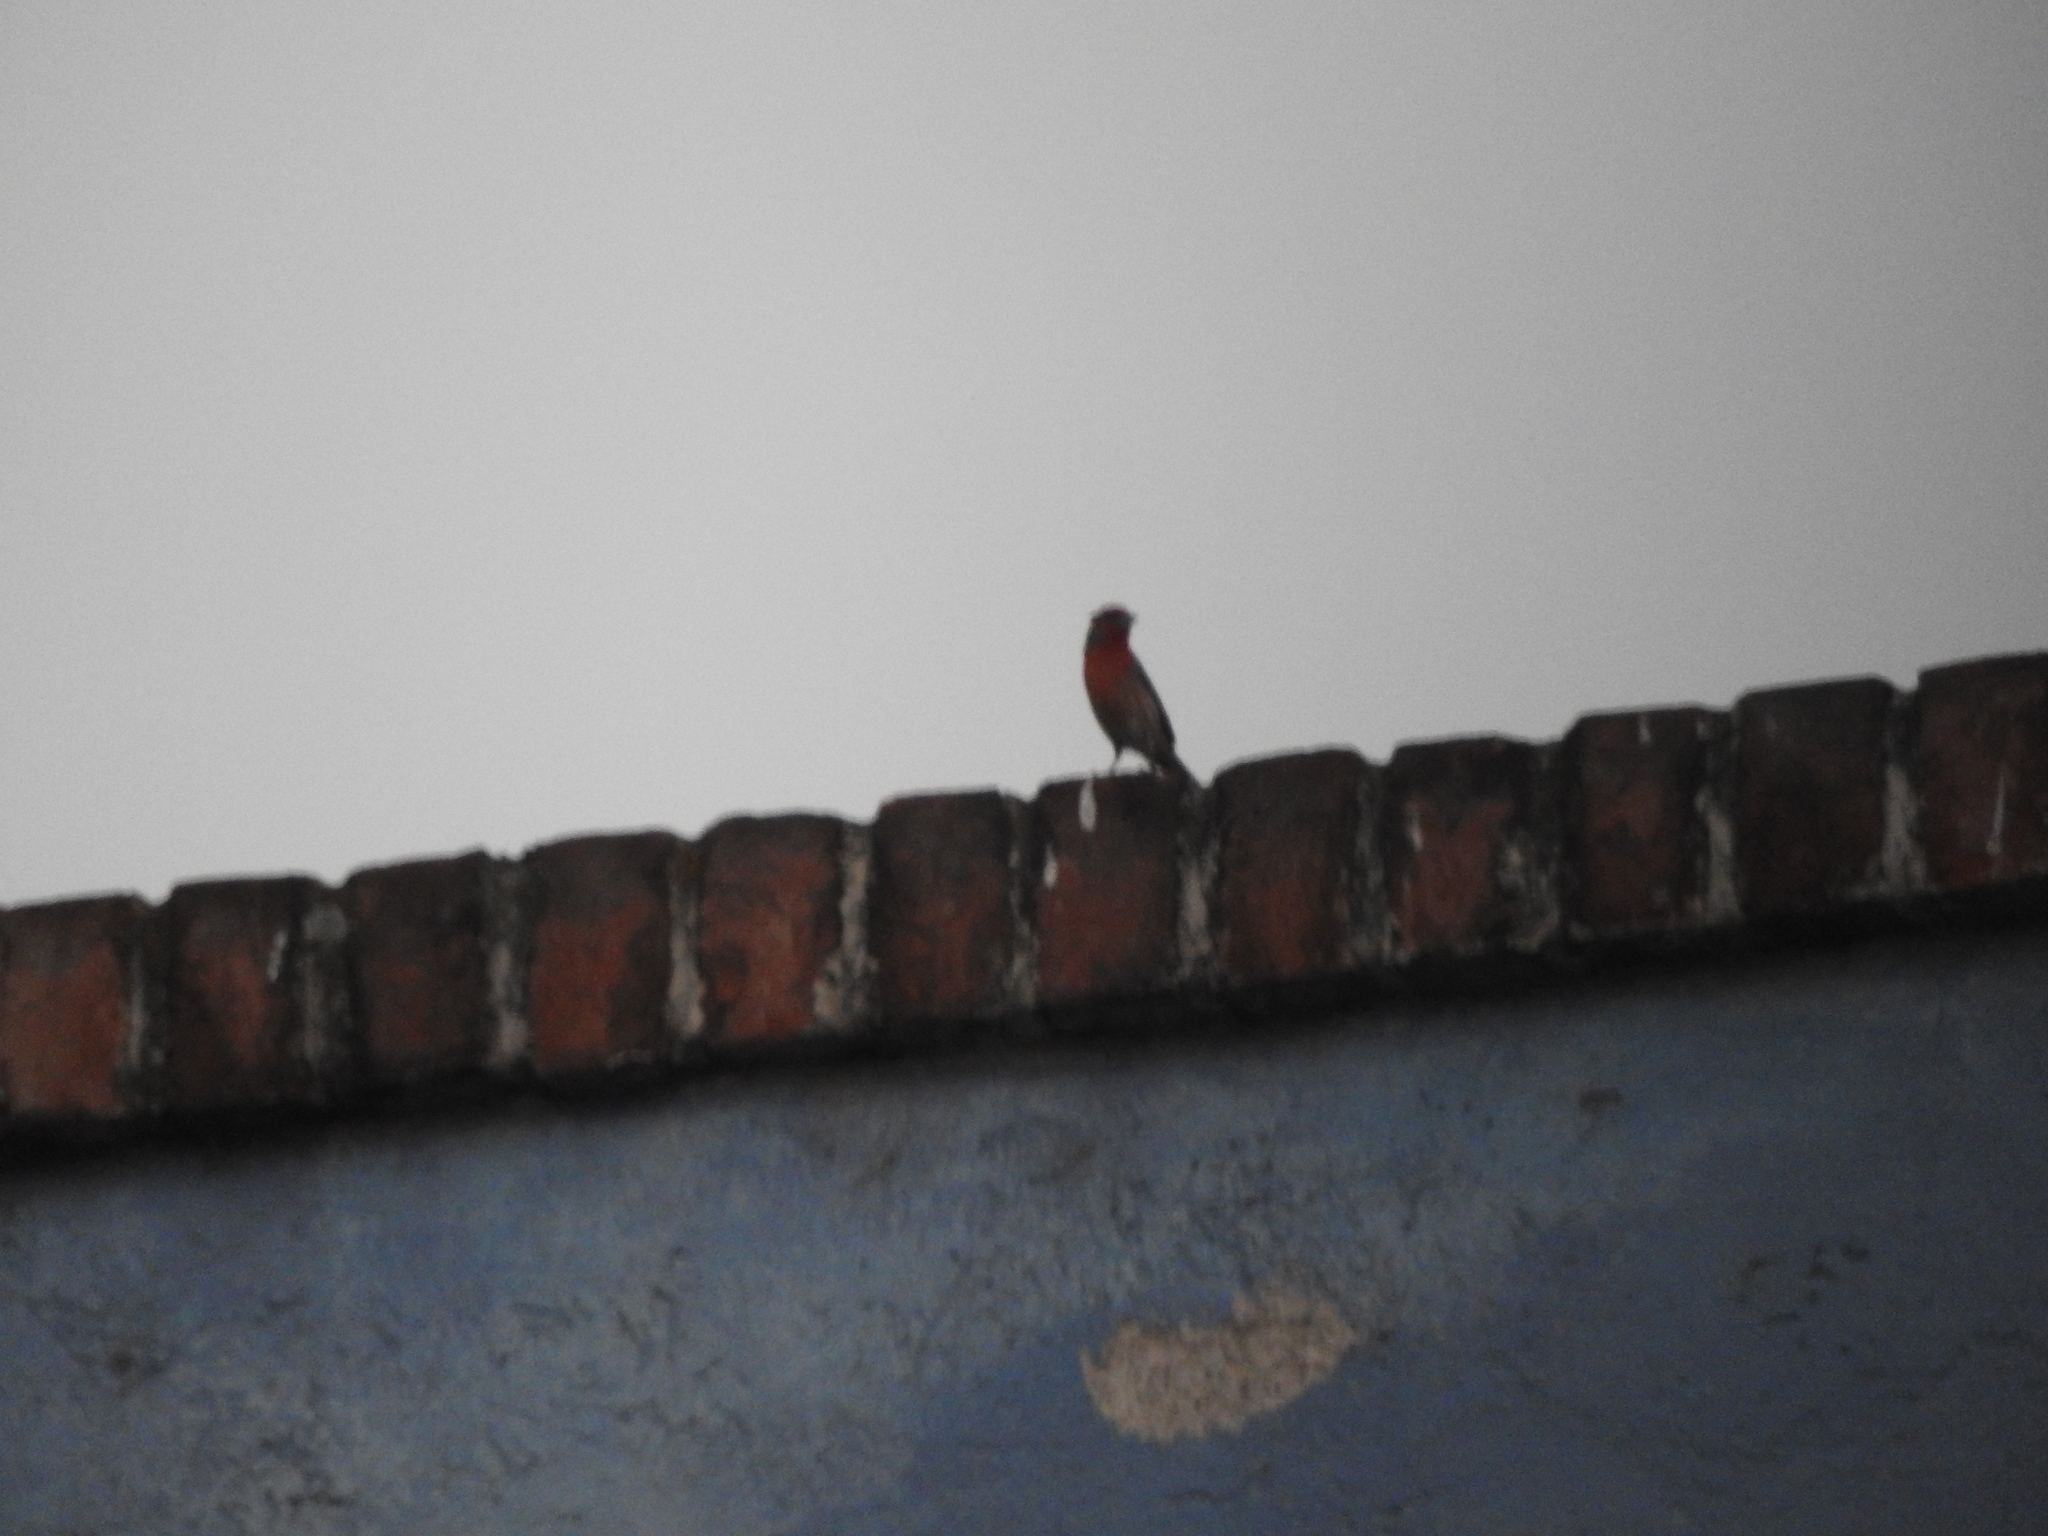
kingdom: Animalia
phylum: Chordata
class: Aves
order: Passeriformes
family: Fringillidae
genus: Haemorhous
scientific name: Haemorhous mexicanus
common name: House finch
